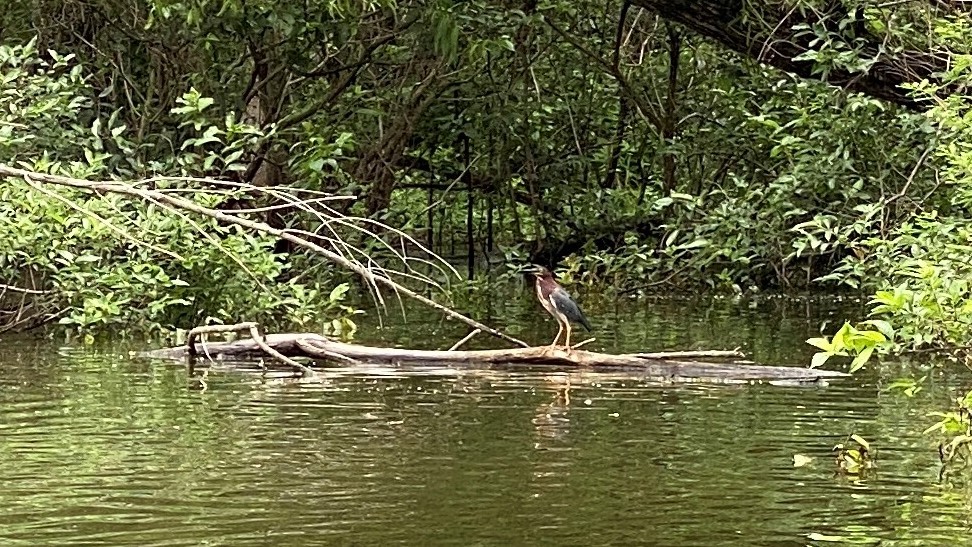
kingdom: Animalia
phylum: Chordata
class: Aves
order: Pelecaniformes
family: Ardeidae
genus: Butorides
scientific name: Butorides virescens
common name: Green heron
